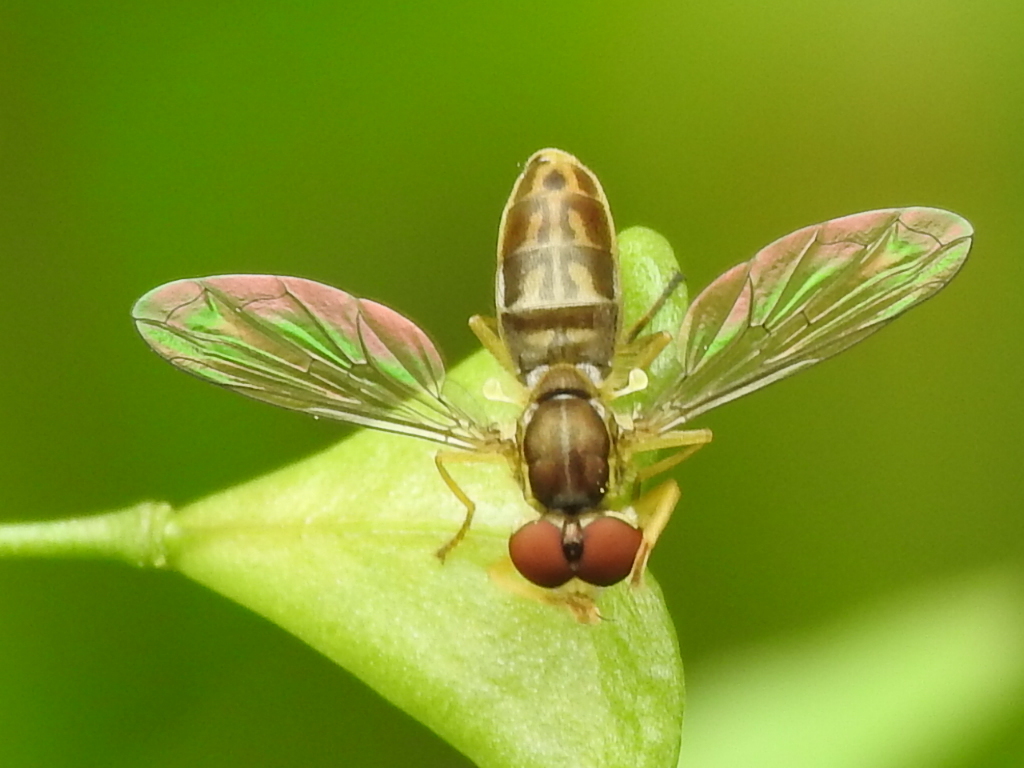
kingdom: Animalia
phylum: Arthropoda
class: Insecta
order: Diptera
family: Syrphidae
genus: Toxomerus
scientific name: Toxomerus marginatus
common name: Syrphid fly
